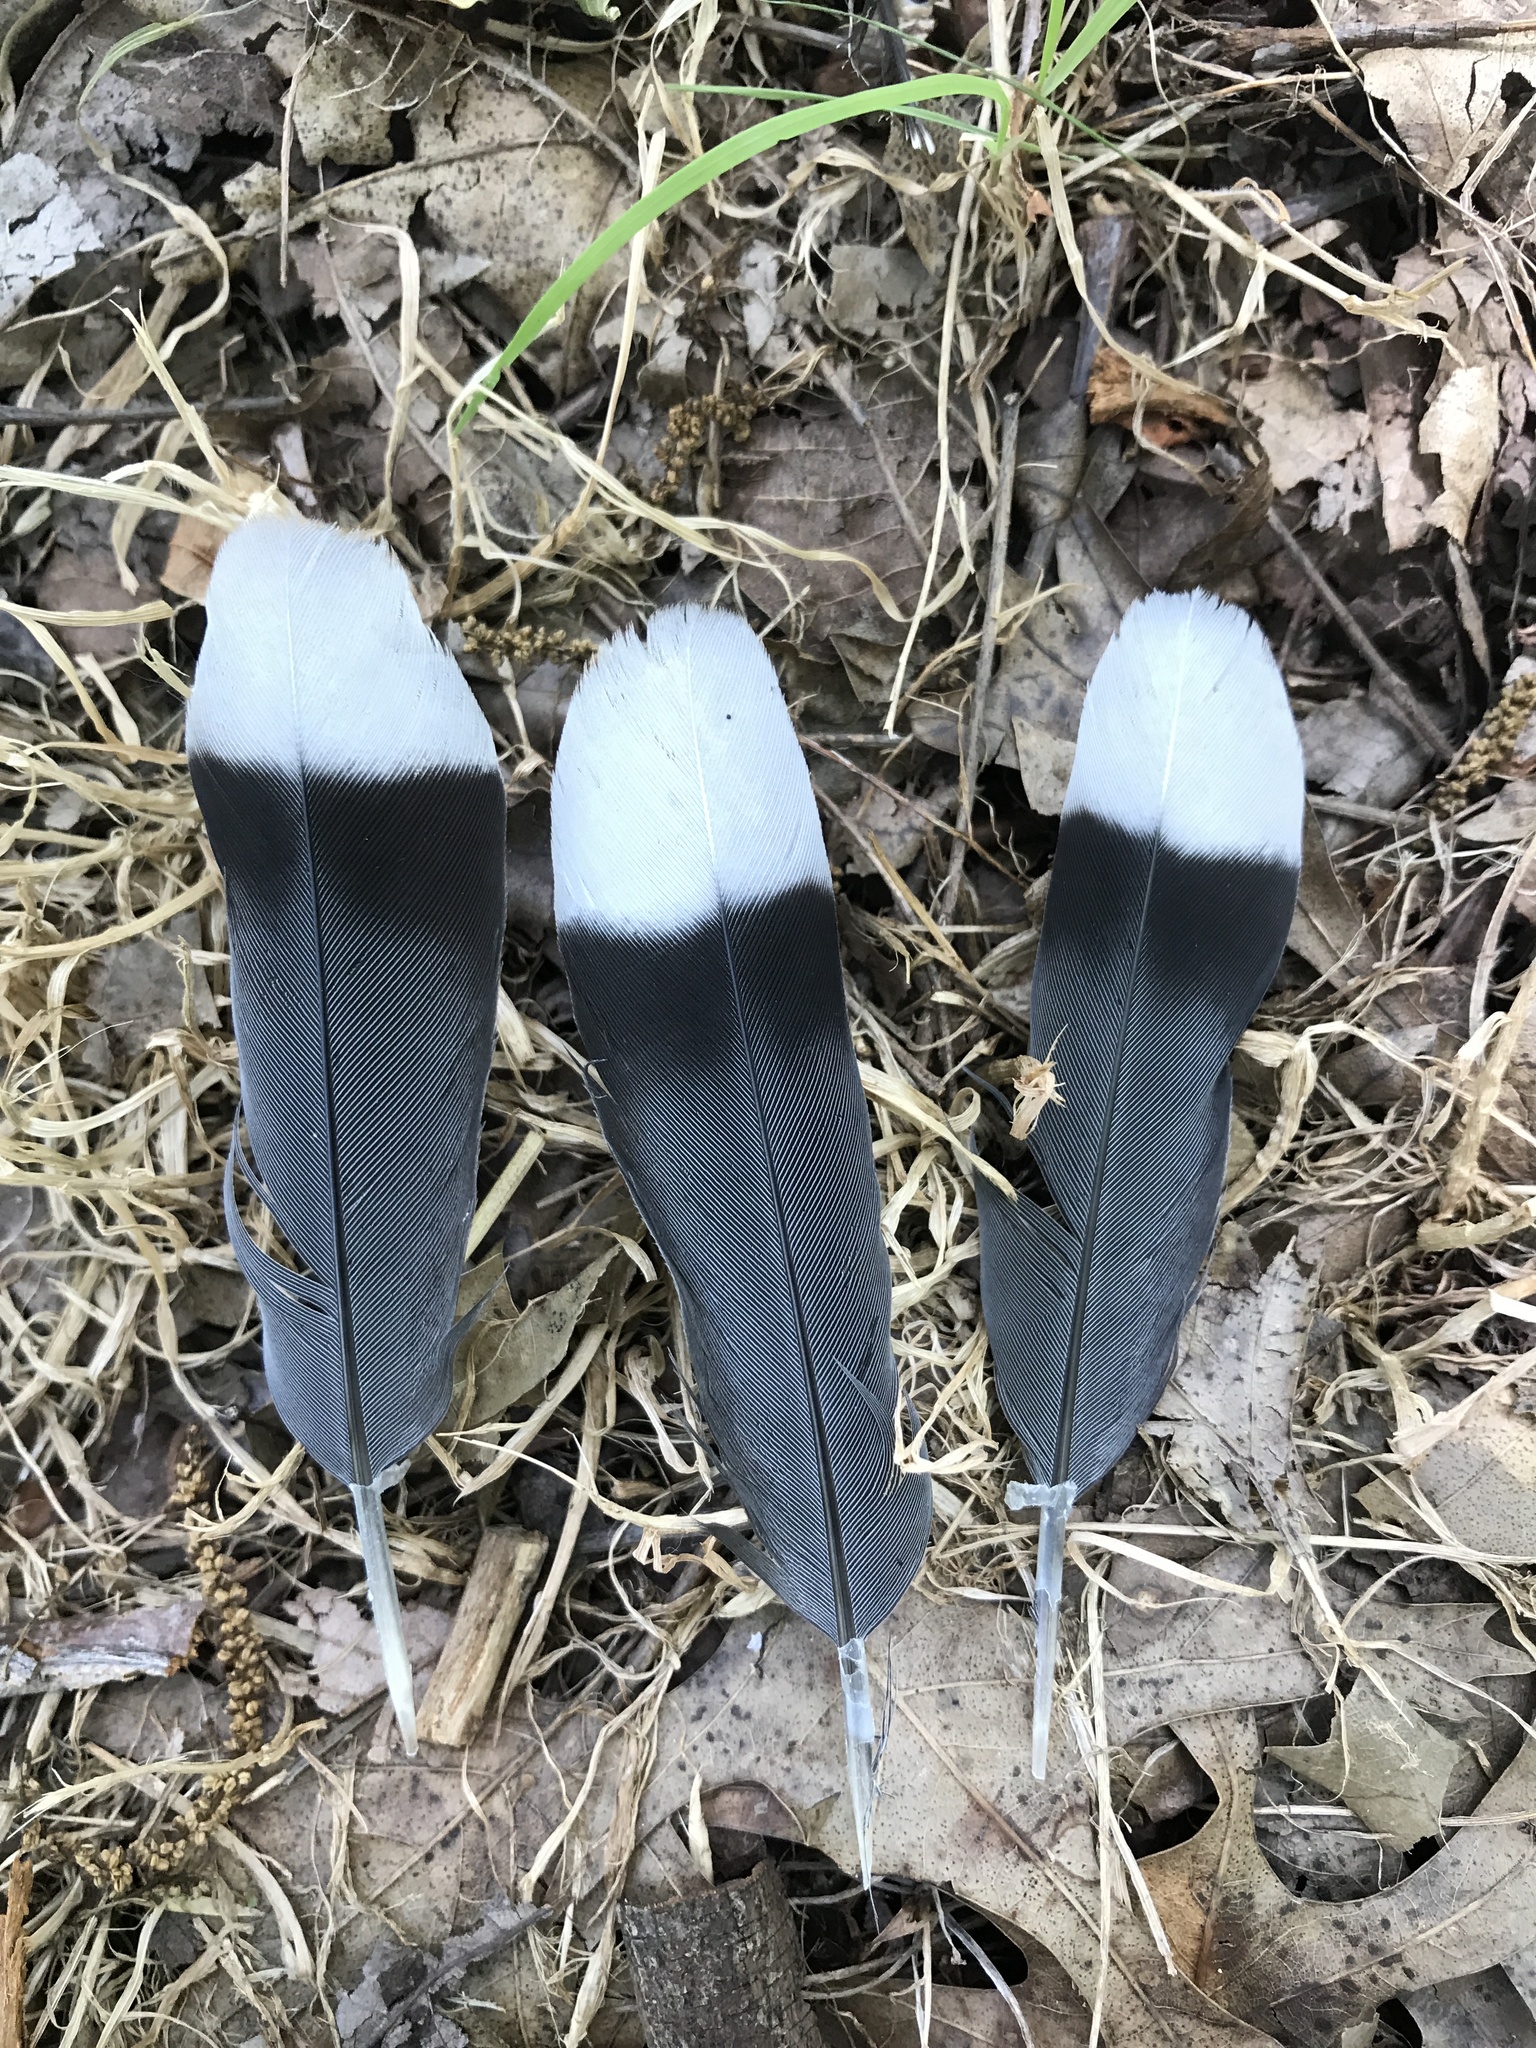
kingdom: Animalia
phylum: Chordata
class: Aves
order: Columbiformes
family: Columbidae
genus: Zenaida
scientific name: Zenaida asiatica
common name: White-winged dove
